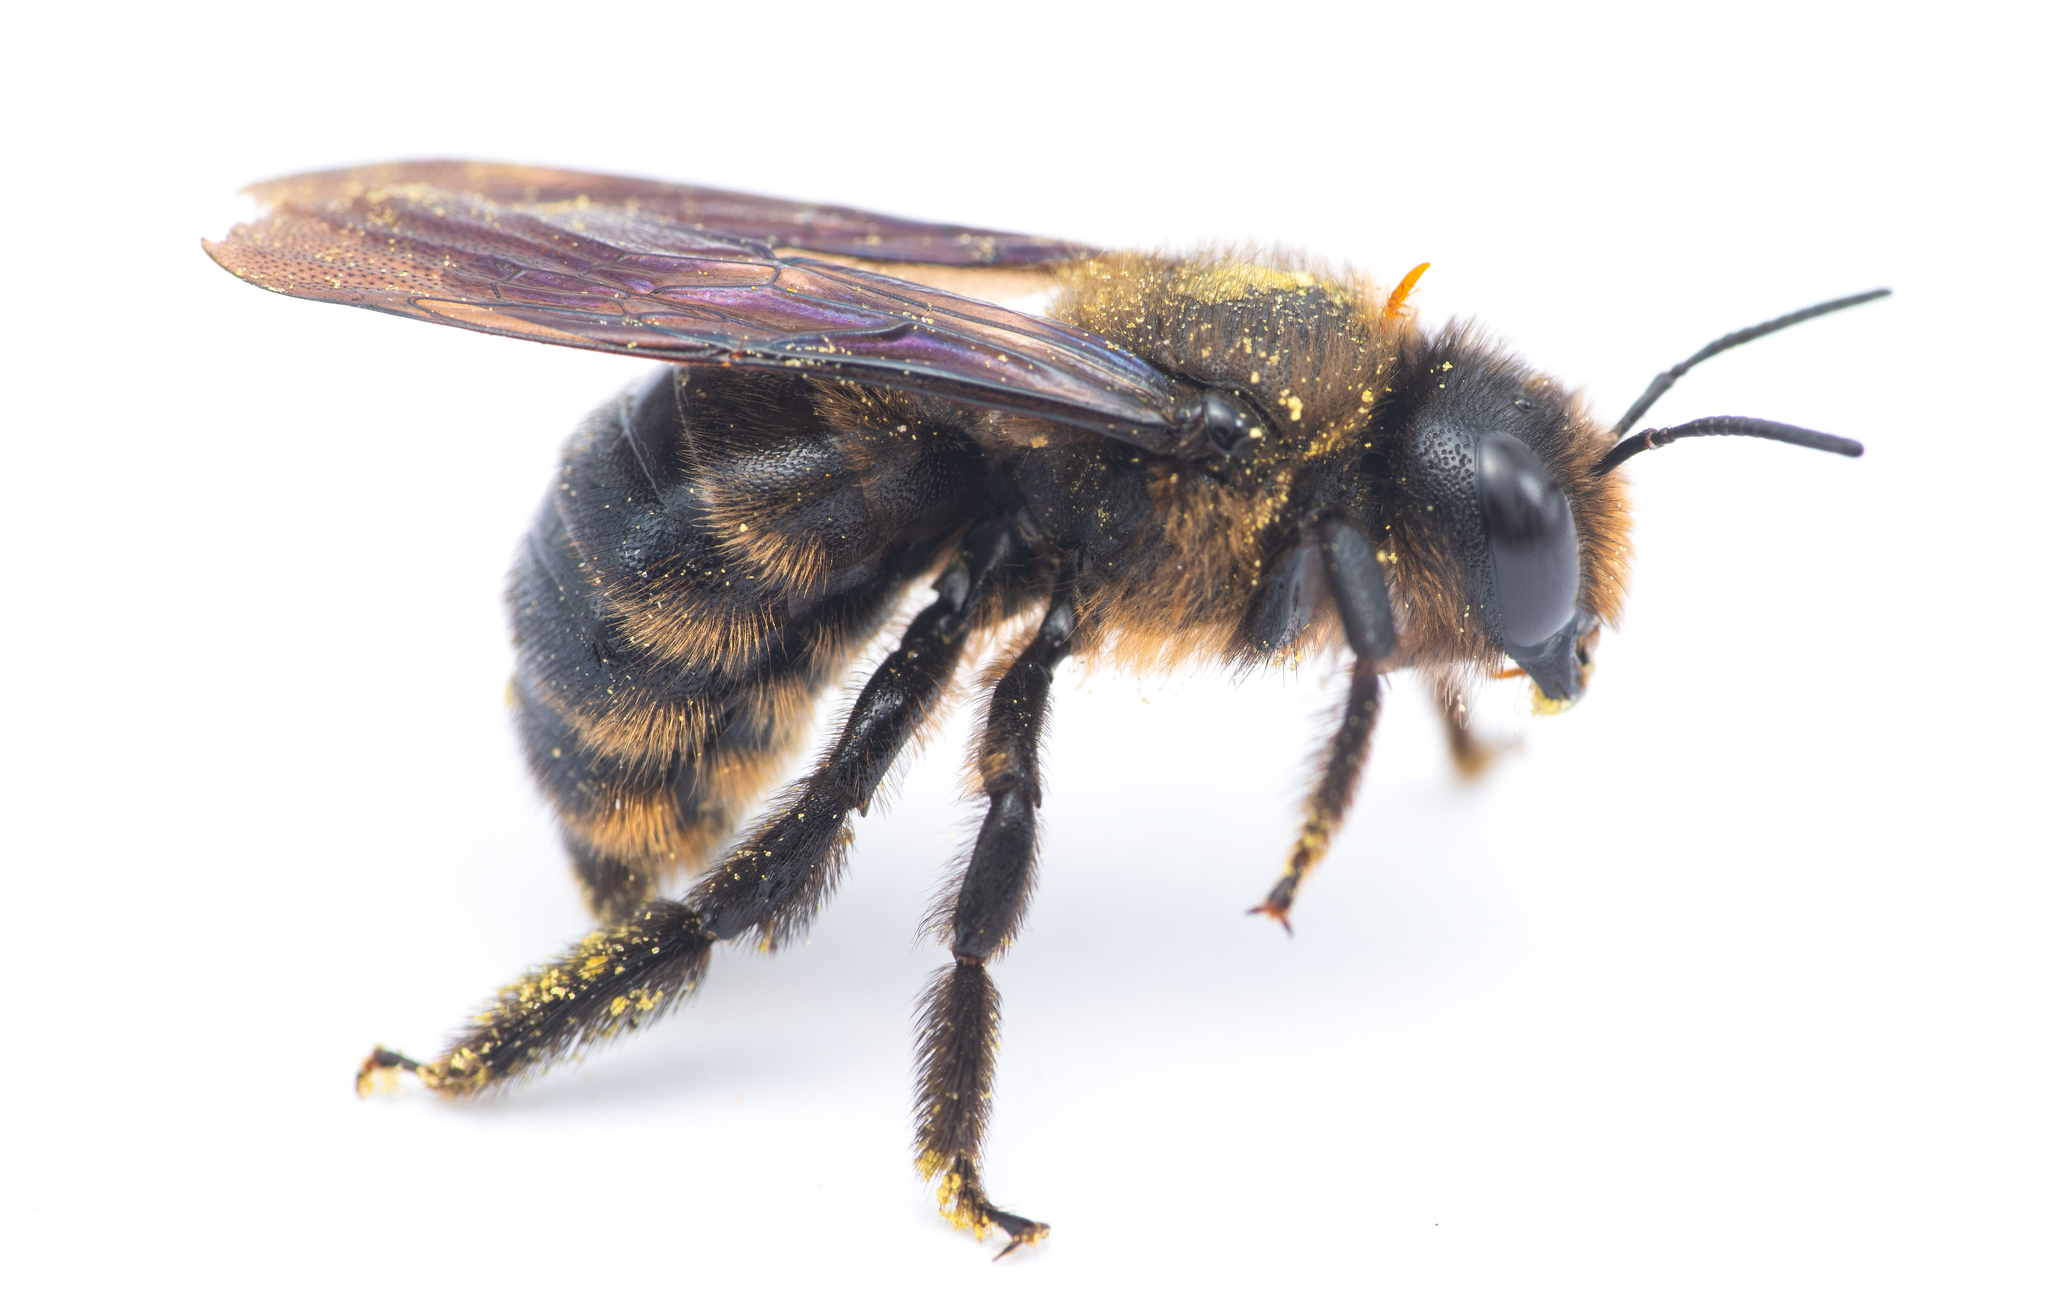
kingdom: Animalia
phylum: Arthropoda
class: Insecta
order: Hymenoptera
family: Apidae
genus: Xylocopa
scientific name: Xylocopa iris
